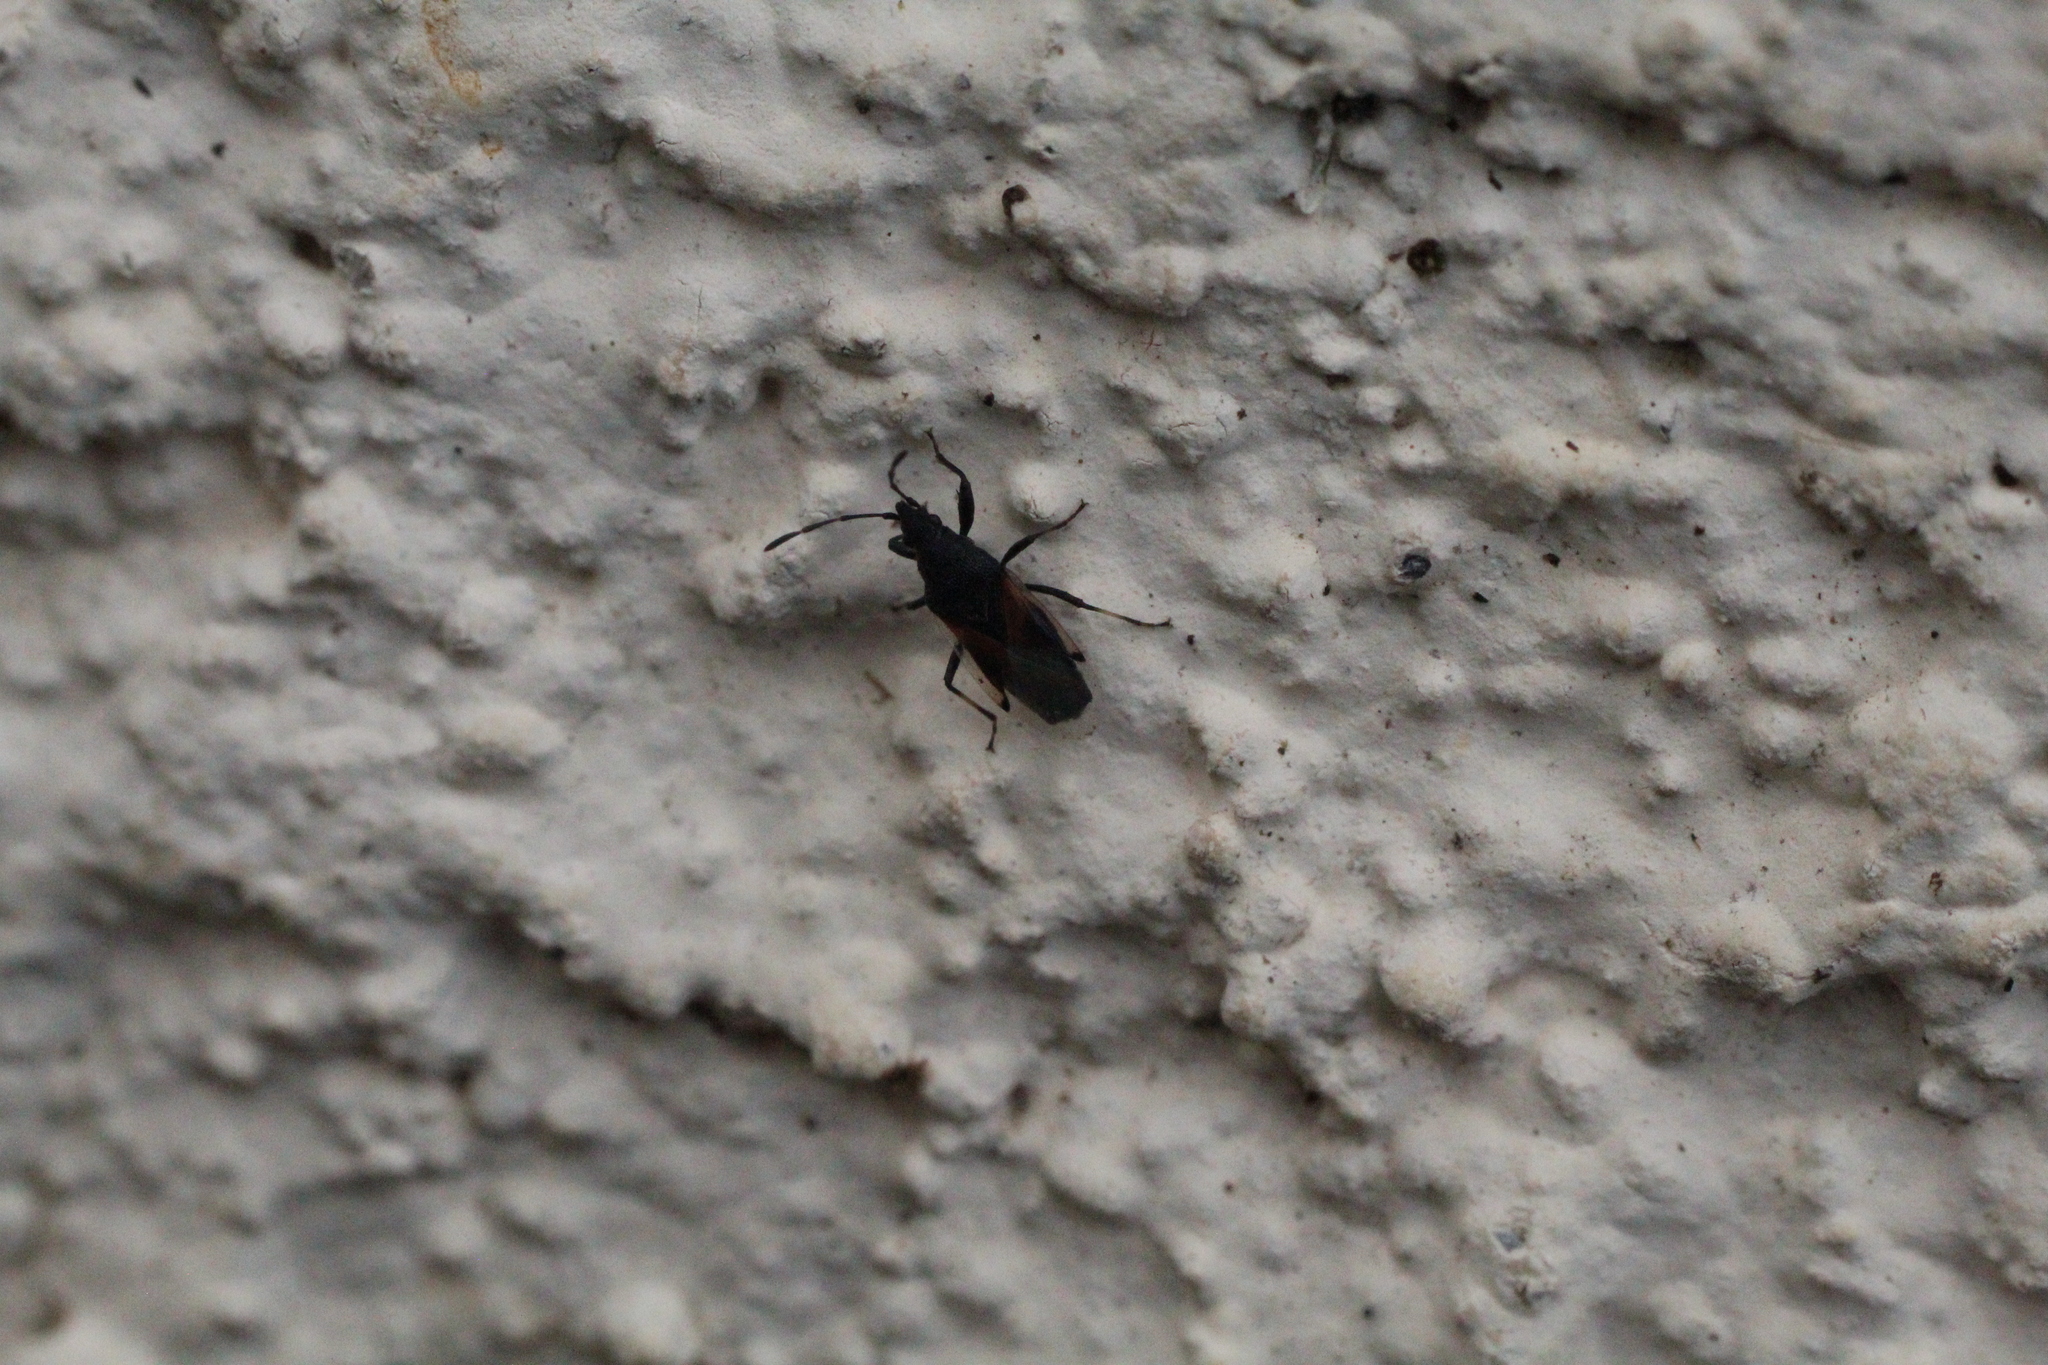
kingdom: Animalia
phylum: Arthropoda
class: Insecta
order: Hemiptera
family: Oxycarenidae
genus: Oxycarenus
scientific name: Oxycarenus lavaterae
